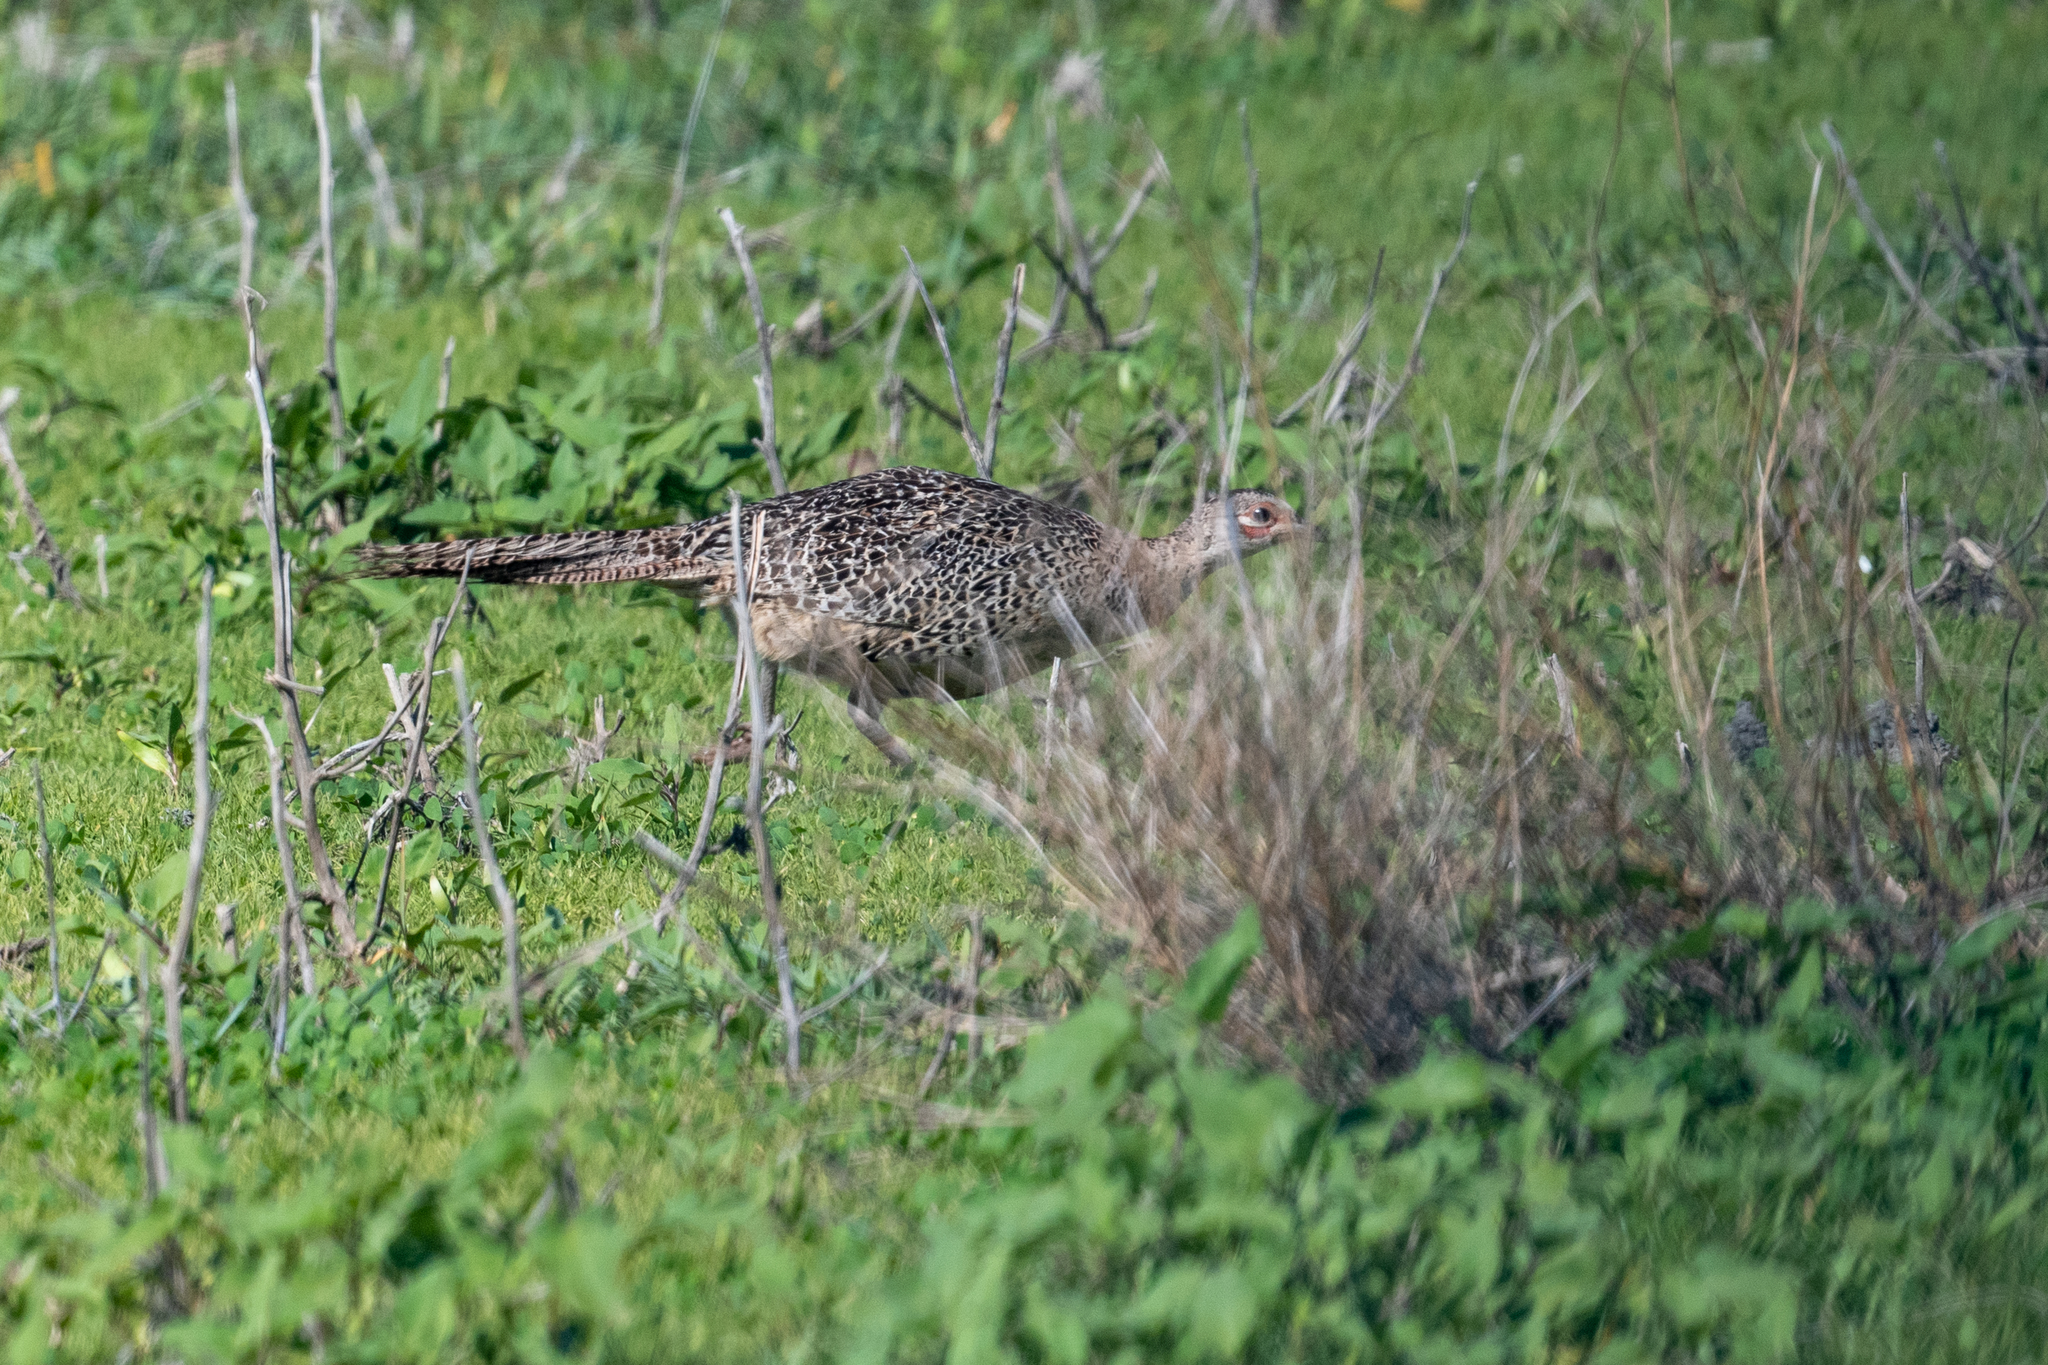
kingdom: Animalia
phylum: Chordata
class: Aves
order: Galliformes
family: Phasianidae
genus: Phasianus
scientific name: Phasianus colchicus
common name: Common pheasant
